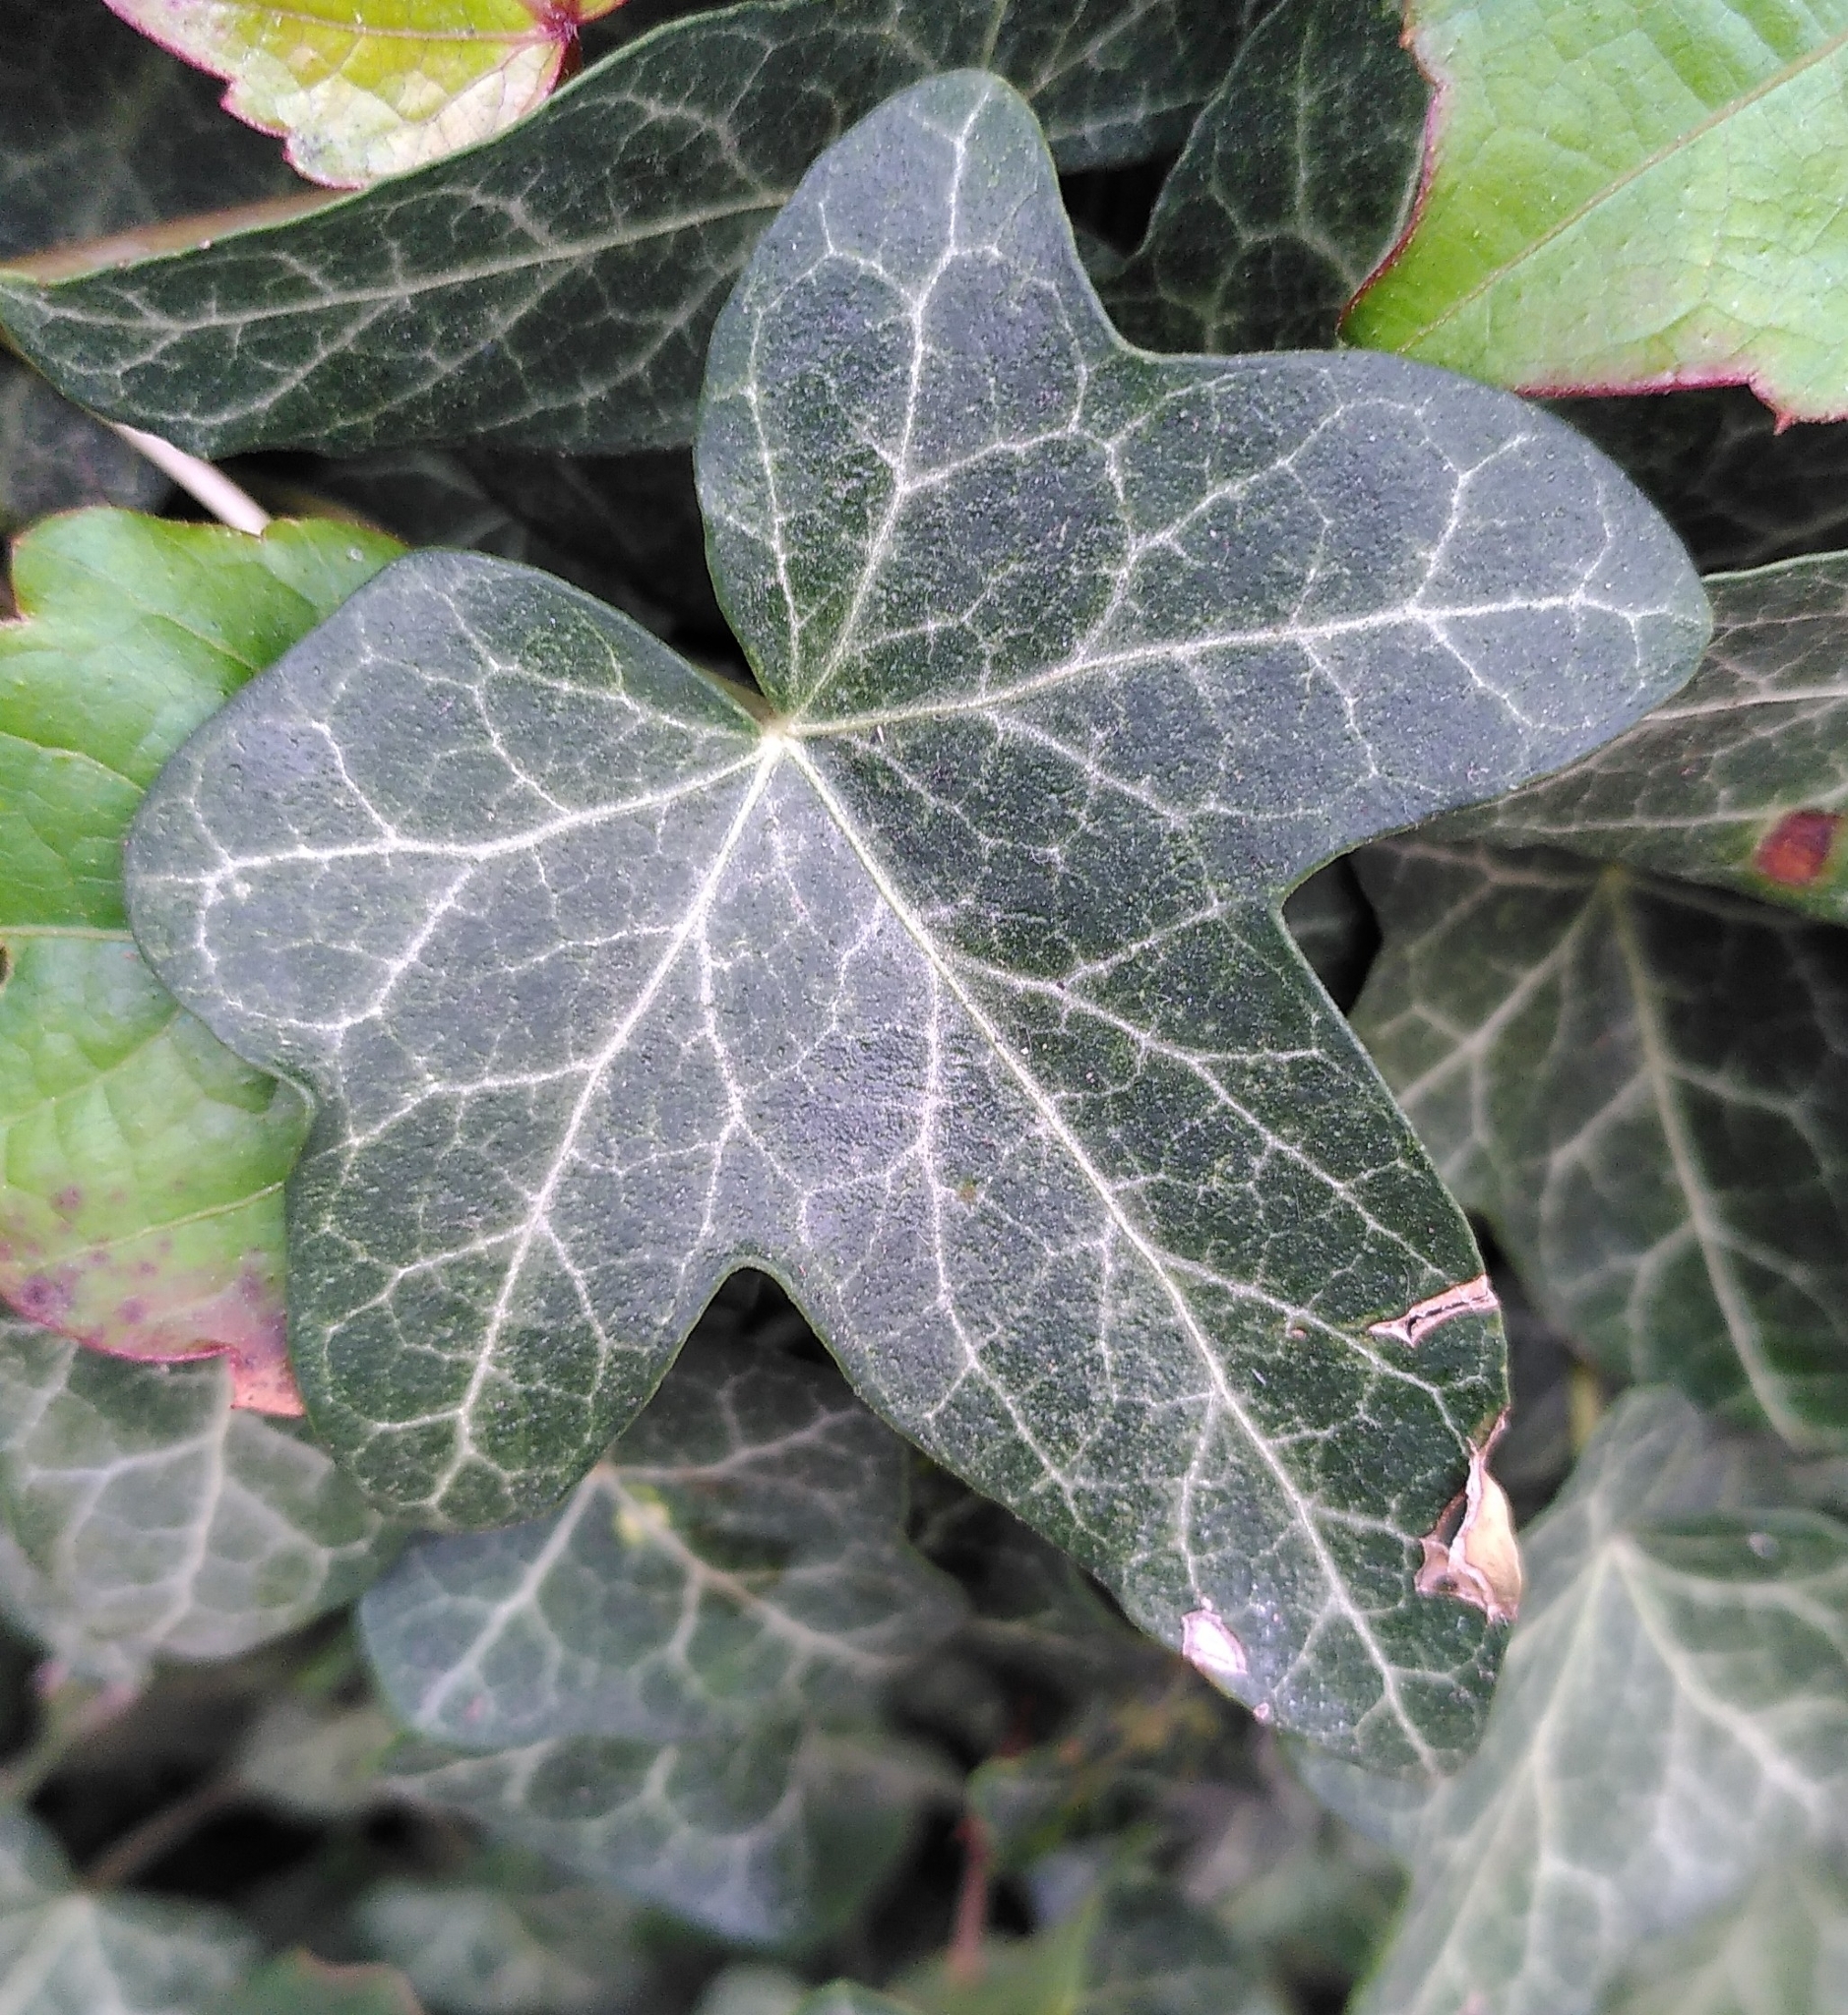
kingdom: Plantae
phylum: Tracheophyta
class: Magnoliopsida
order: Apiales
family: Araliaceae
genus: Hedera
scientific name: Hedera helix
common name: Ivy
